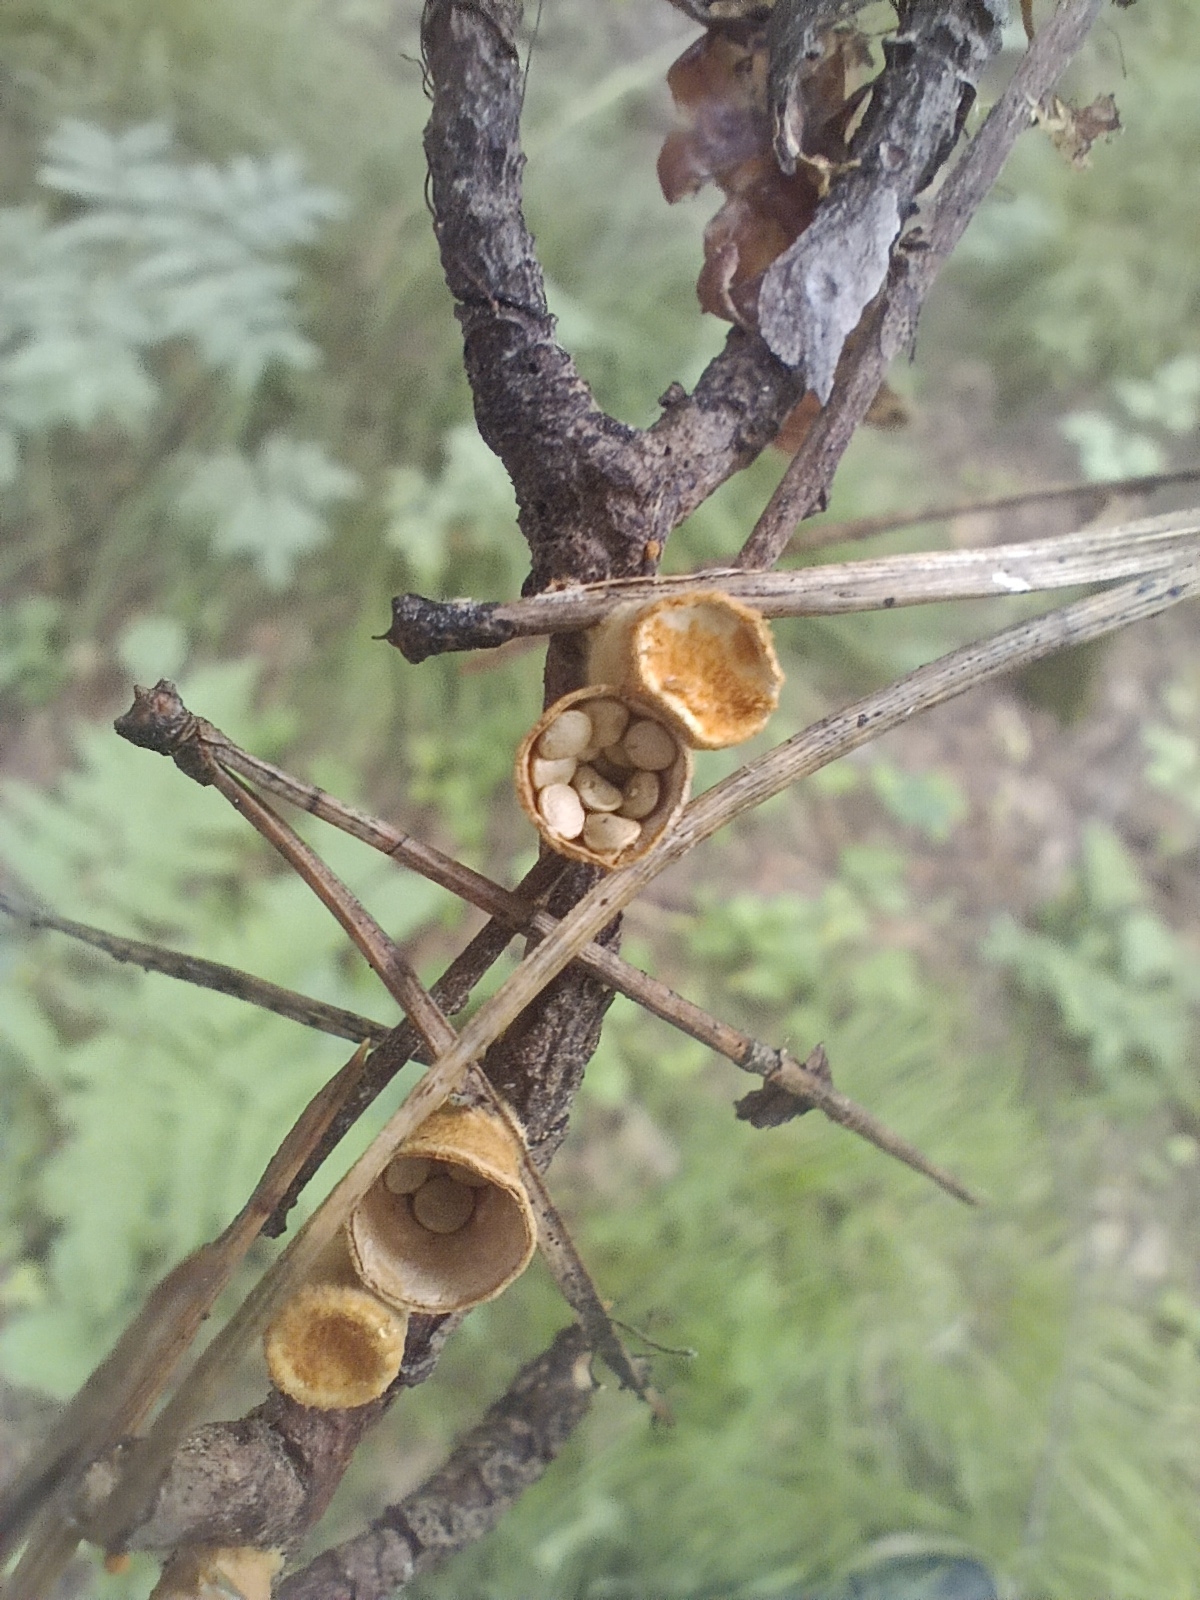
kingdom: Fungi
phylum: Basidiomycota
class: Agaricomycetes
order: Agaricales
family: Nidulariaceae
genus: Crucibulum
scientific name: Crucibulum laeve
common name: Common bird's nest
